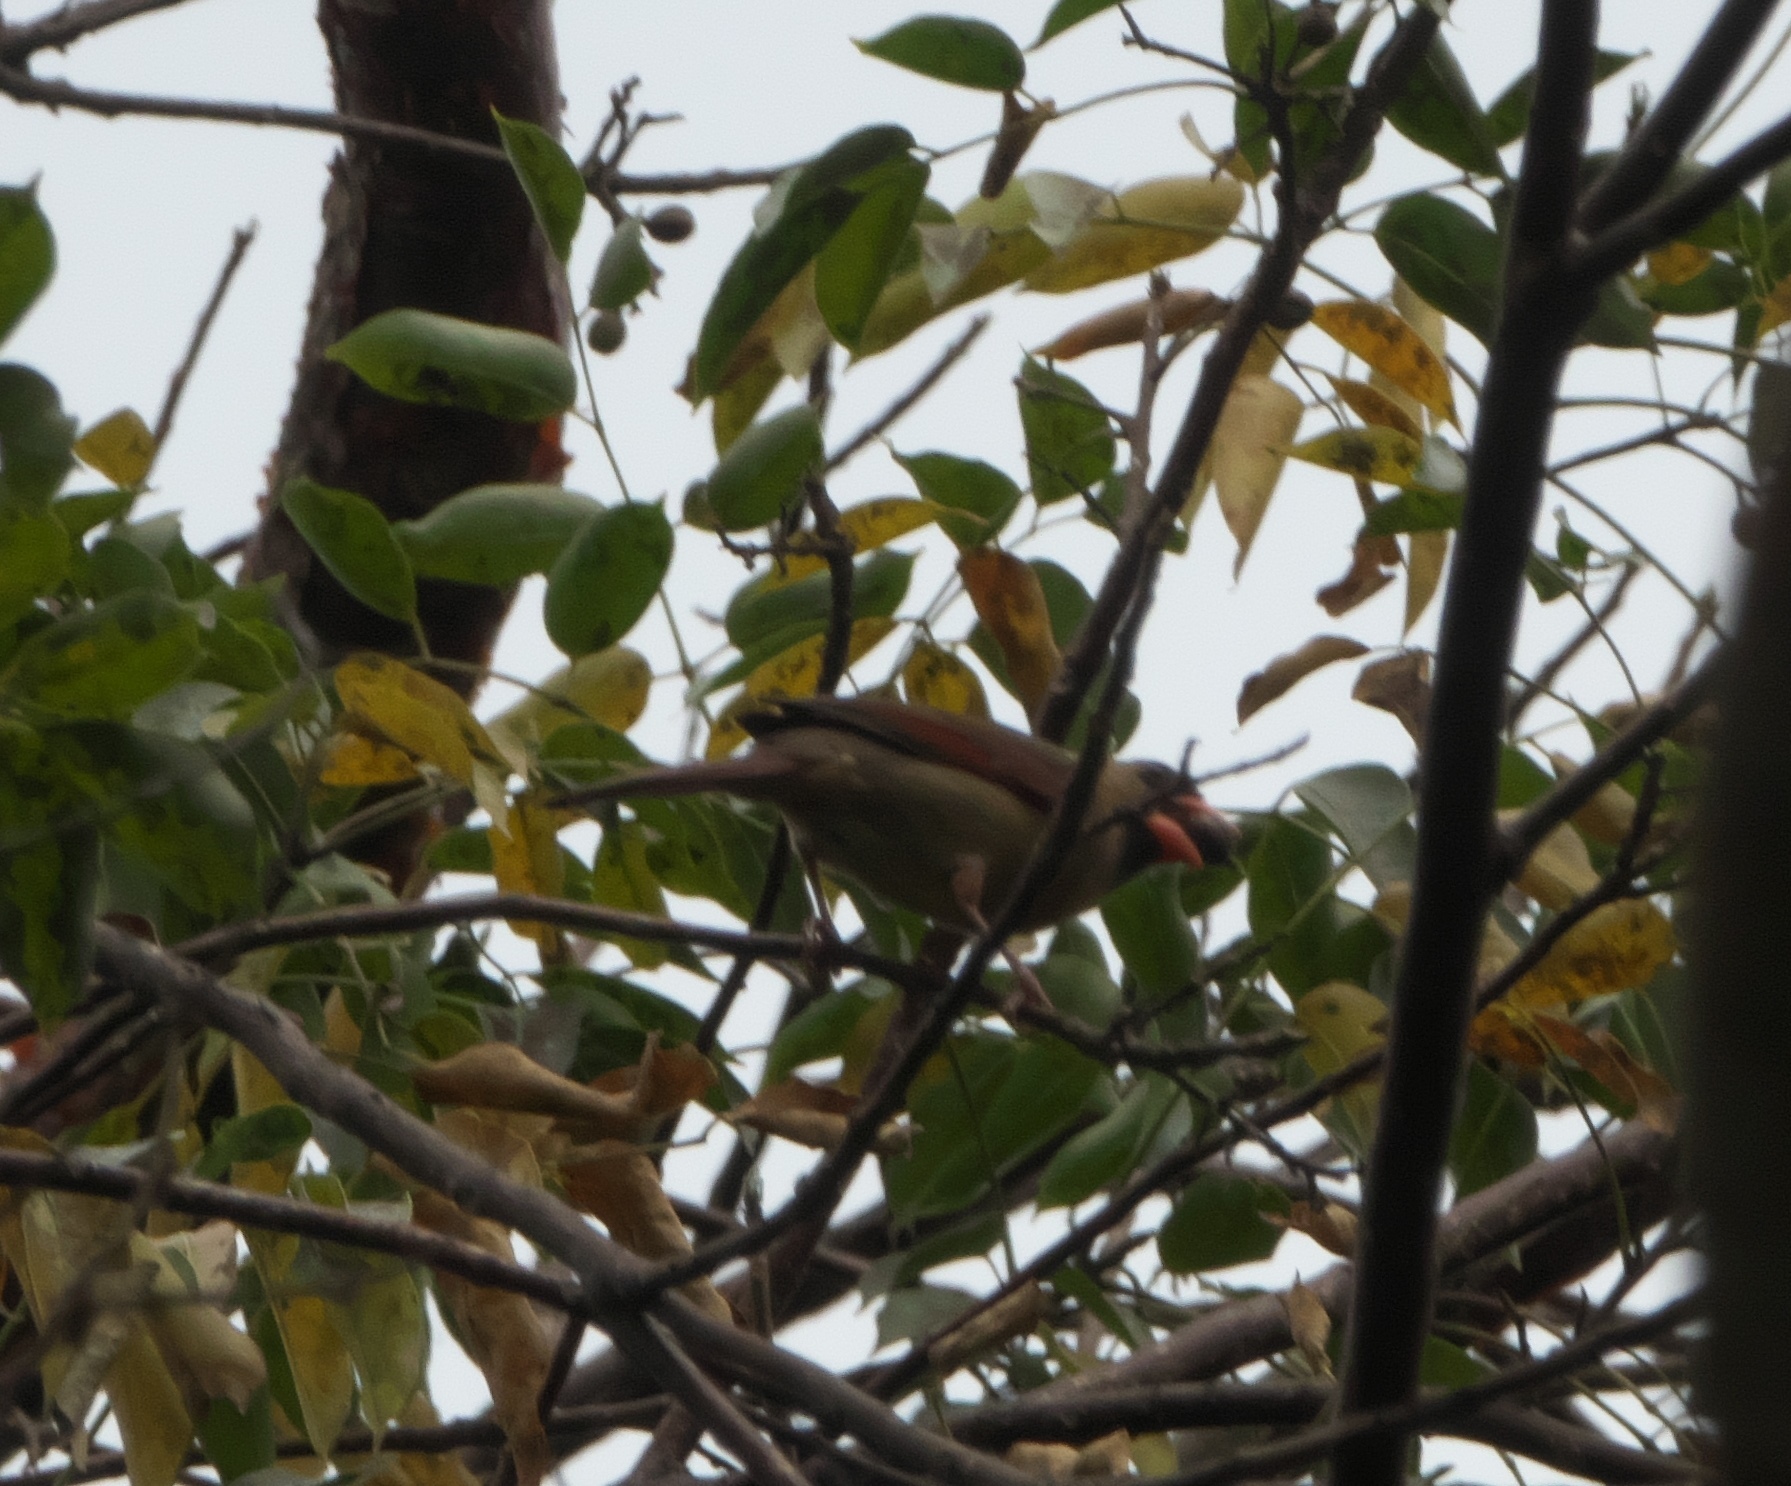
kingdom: Animalia
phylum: Chordata
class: Aves
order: Passeriformes
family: Cardinalidae
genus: Cardinalis
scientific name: Cardinalis cardinalis
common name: Northern cardinal
